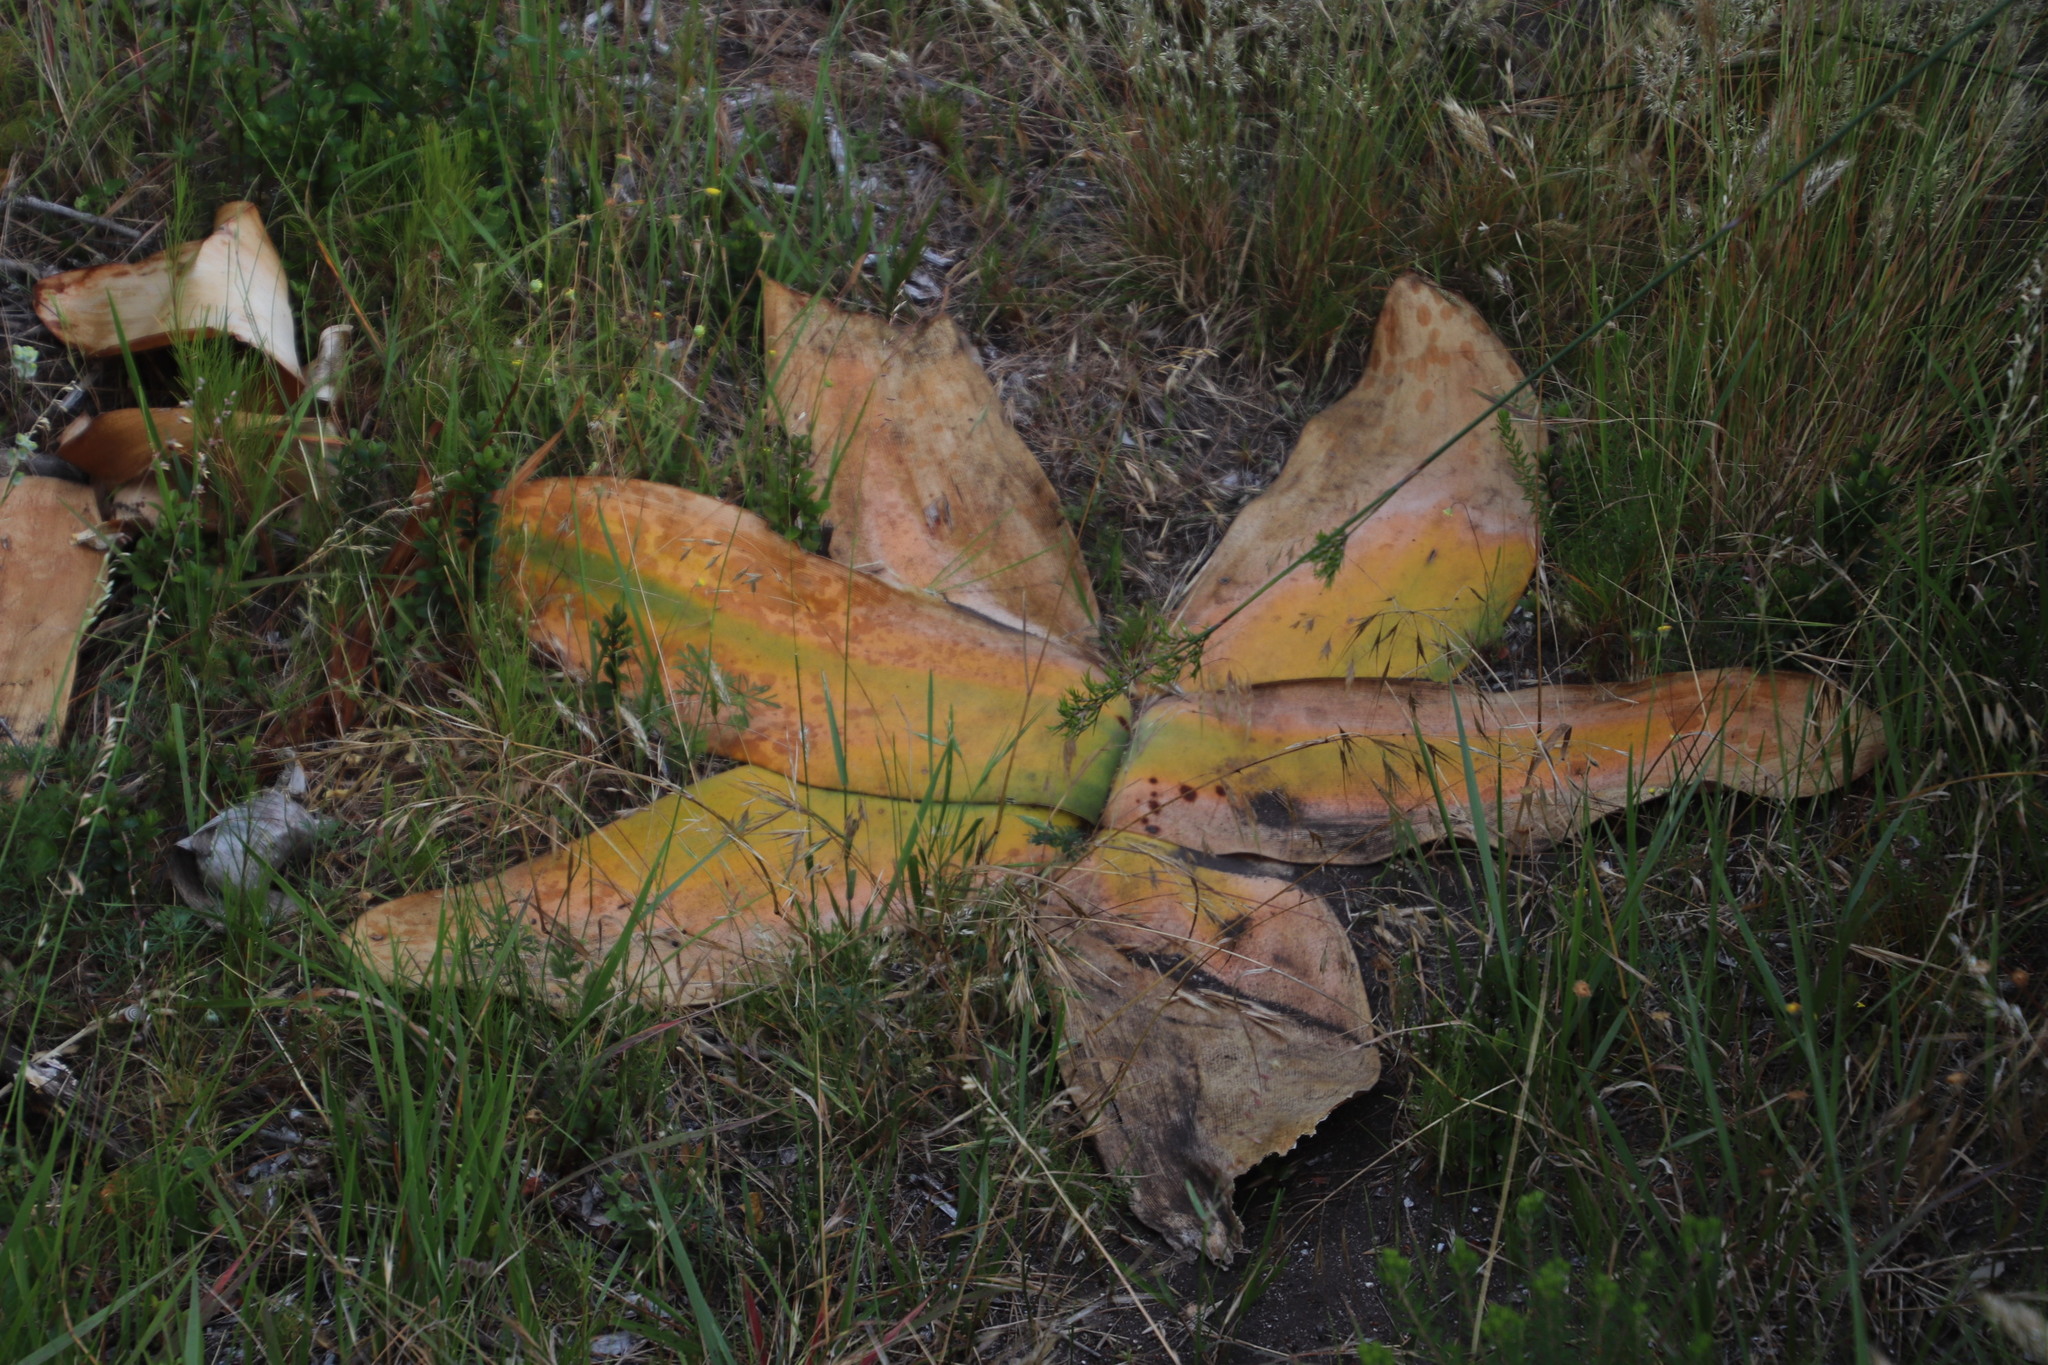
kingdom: Plantae
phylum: Tracheophyta
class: Liliopsida
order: Asparagales
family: Amaryllidaceae
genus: Brunsvigia
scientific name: Brunsvigia orientalis
